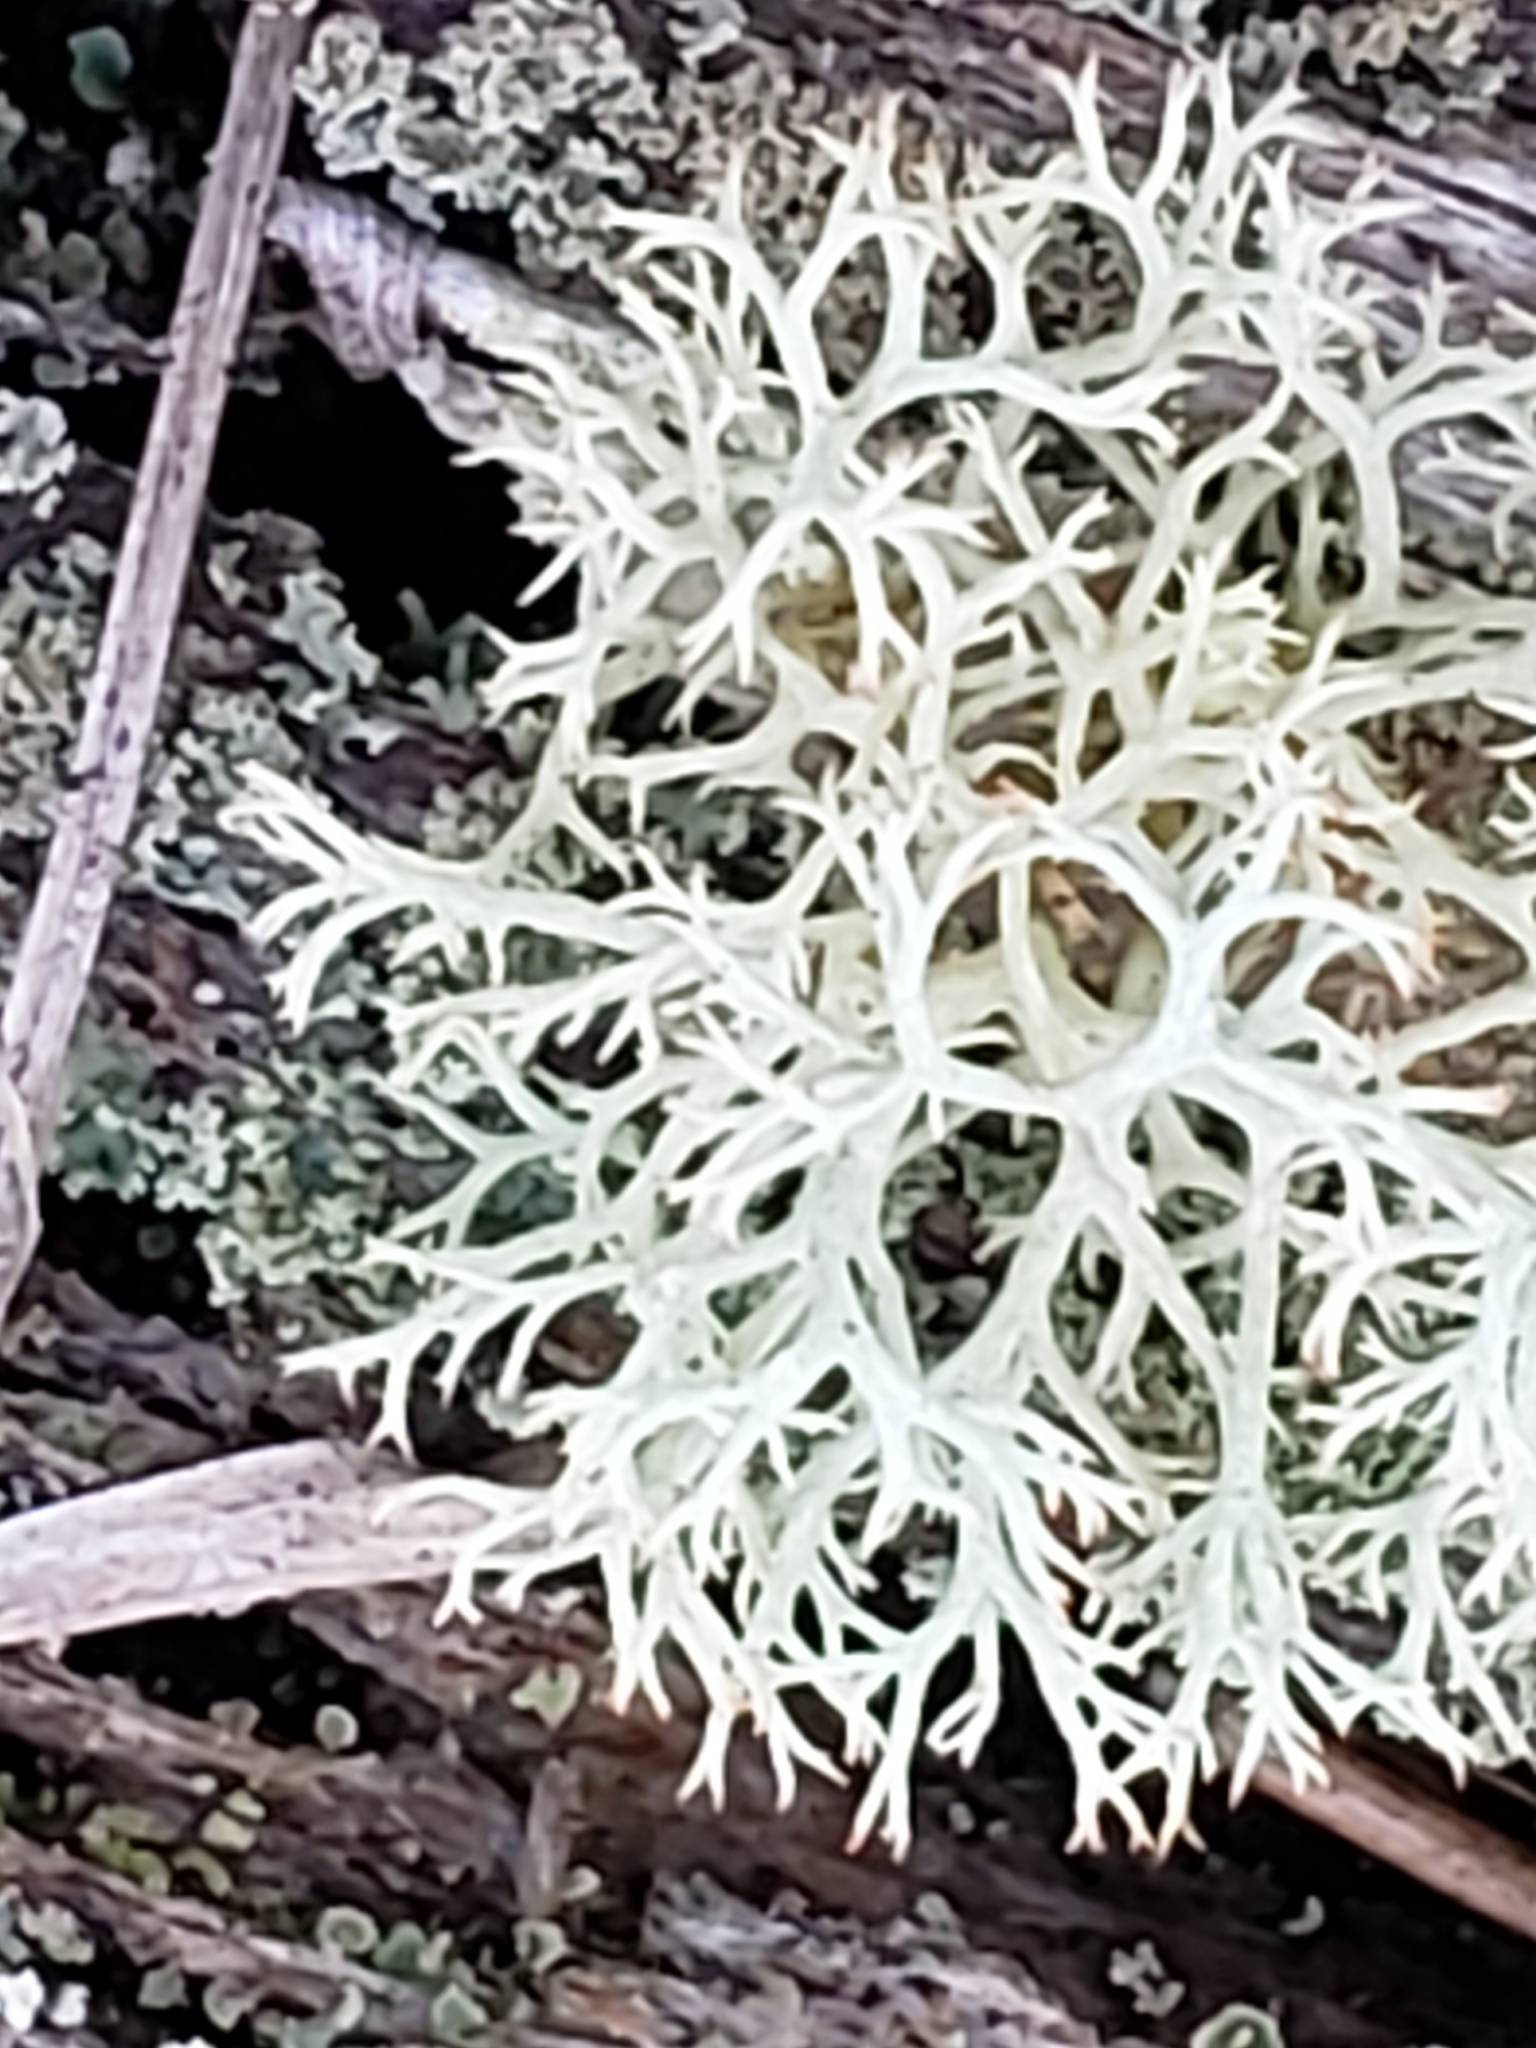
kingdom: Fungi
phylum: Ascomycota
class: Lecanoromycetes
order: Lecanorales
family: Cladoniaceae
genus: Cladonia
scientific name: Cladonia subtenuis
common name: Dixie reindeer lichen
